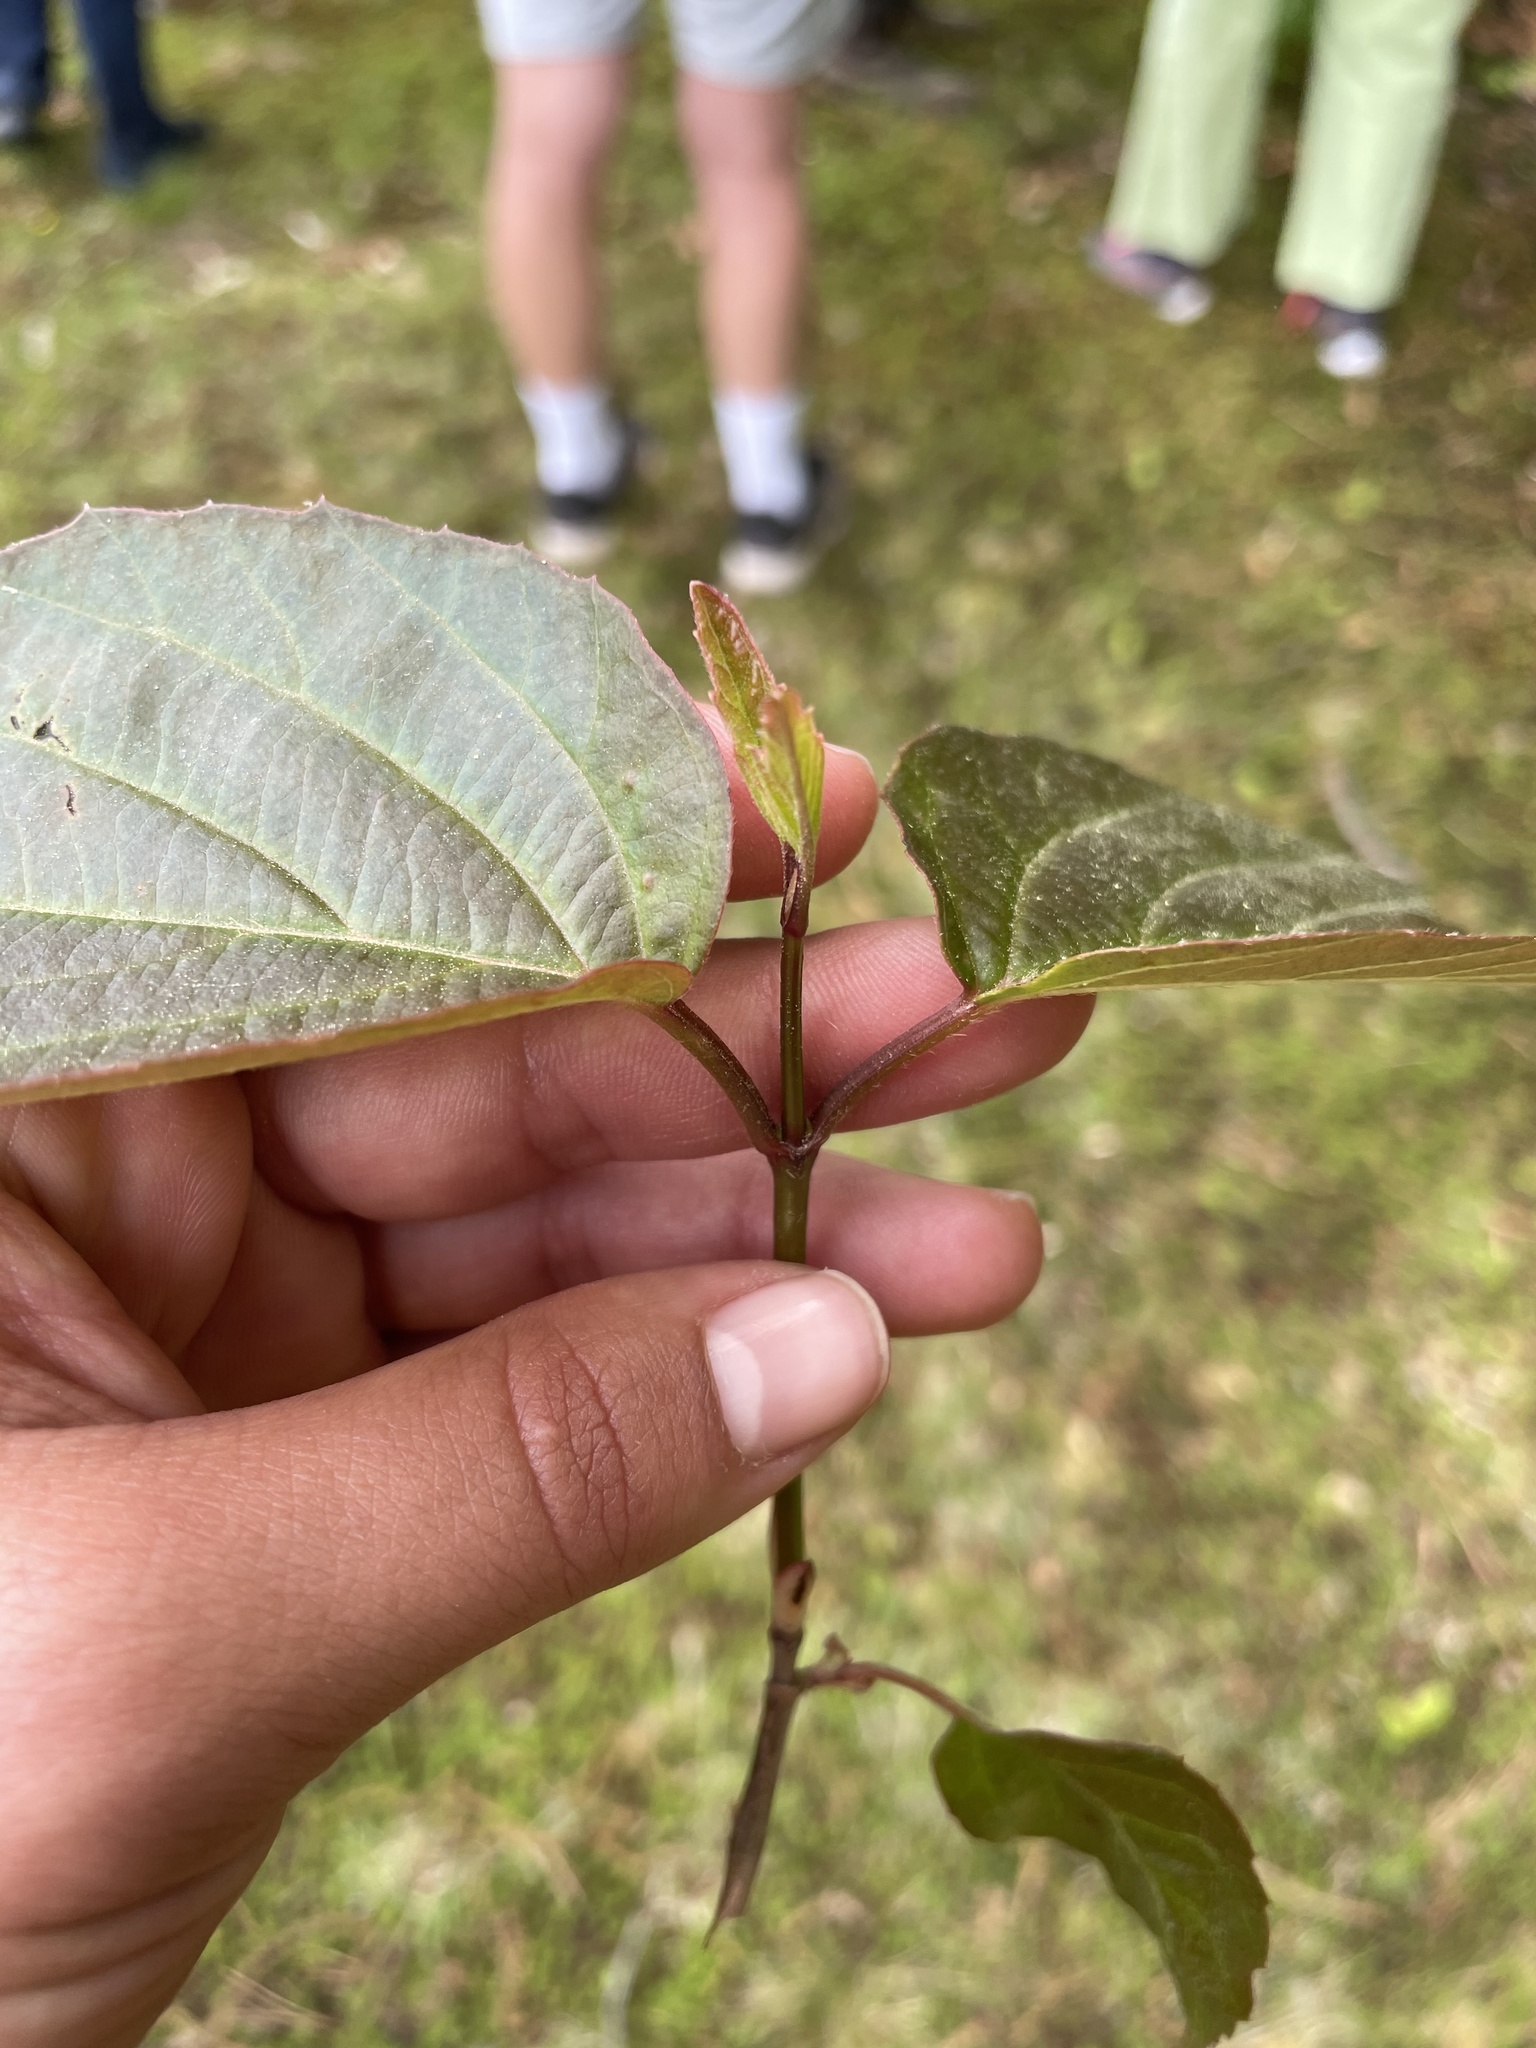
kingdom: Plantae
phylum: Tracheophyta
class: Magnoliopsida
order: Dipsacales
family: Viburnaceae
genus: Viburnum
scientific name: Viburnum setigerum
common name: Tea viburnum
